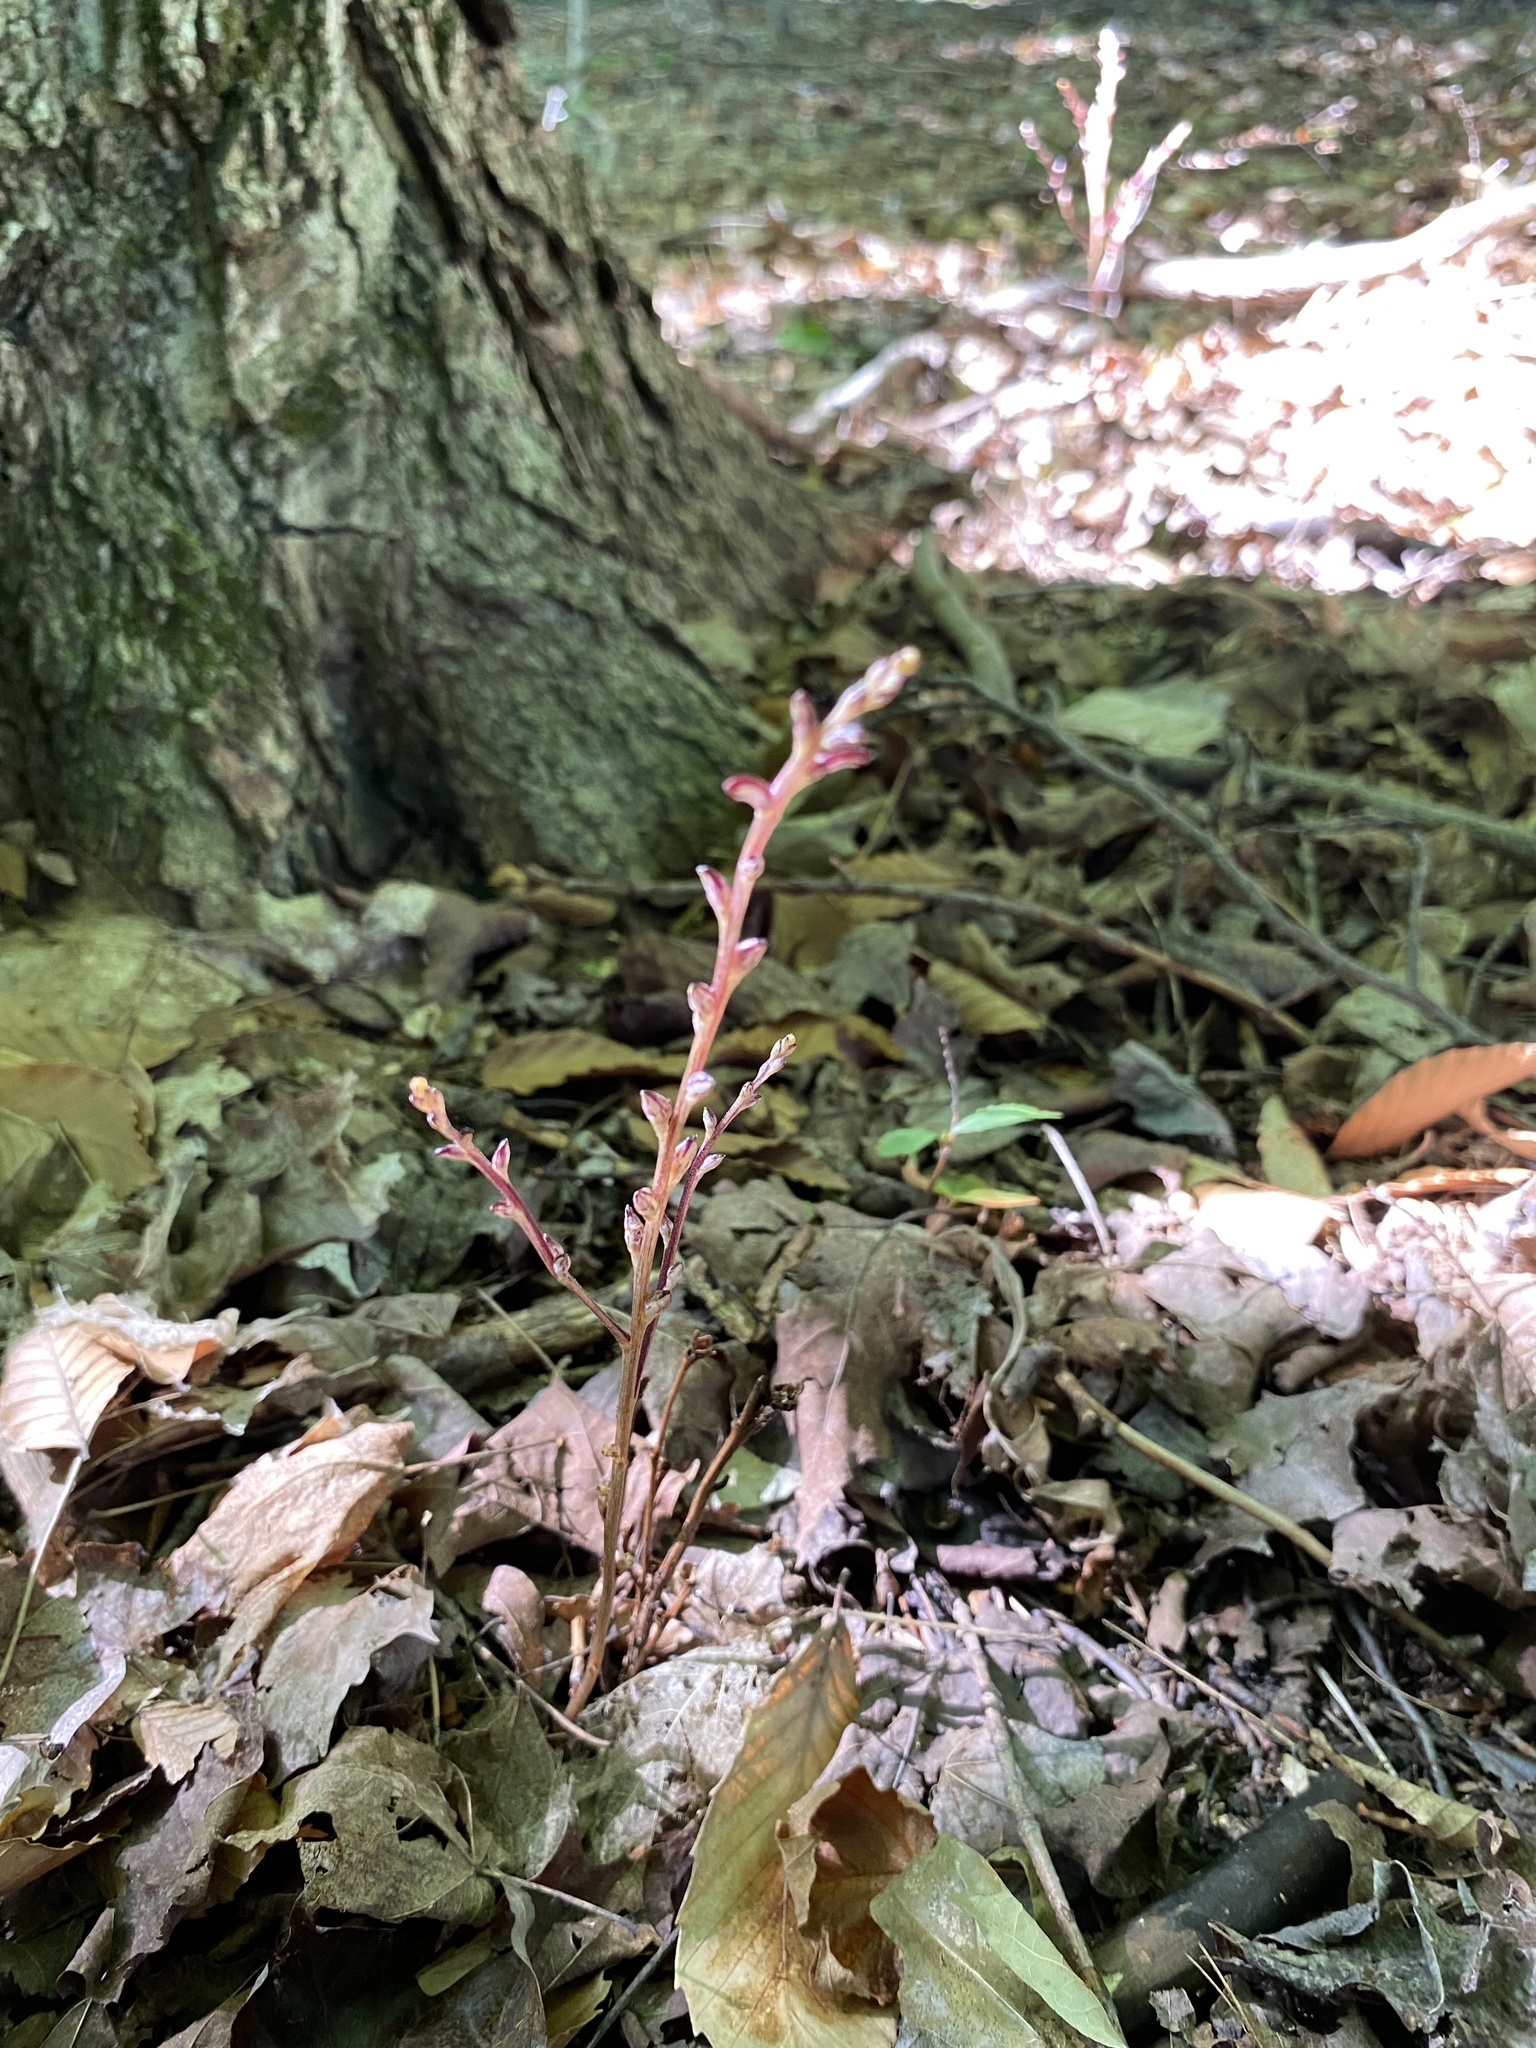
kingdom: Plantae
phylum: Tracheophyta
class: Magnoliopsida
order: Lamiales
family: Orobanchaceae
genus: Epifagus
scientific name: Epifagus virginiana
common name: Beechdrops
